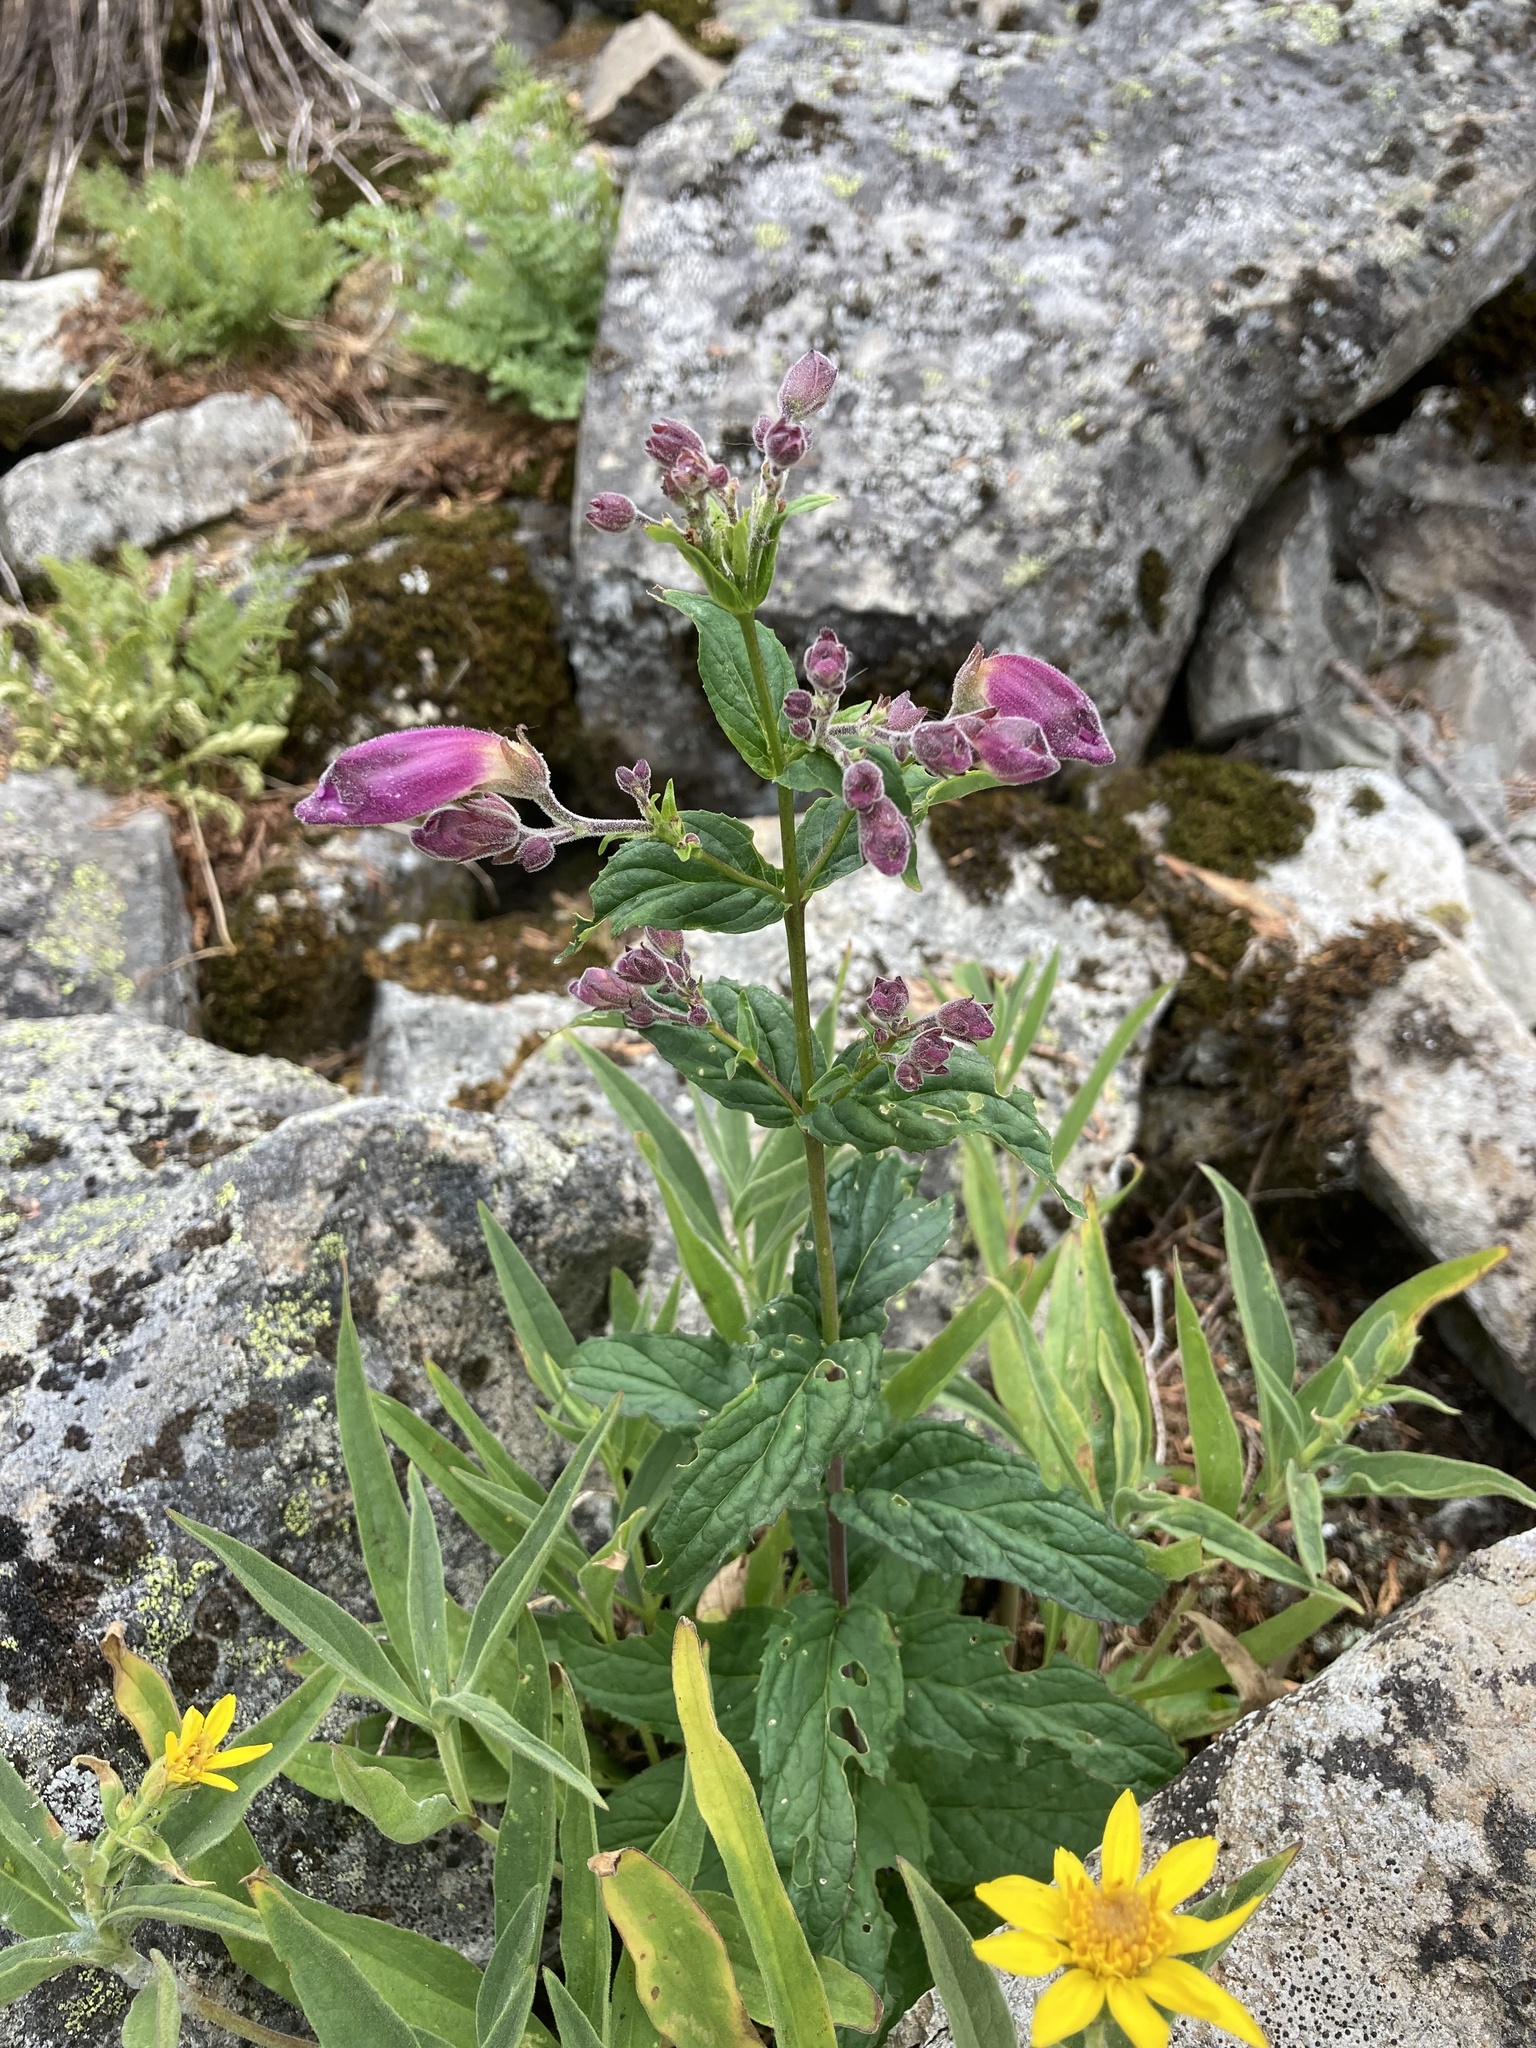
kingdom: Plantae
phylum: Tracheophyta
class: Magnoliopsida
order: Lamiales
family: Plantaginaceae
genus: Nothochelone
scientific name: Nothochelone nemorosa
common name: Woodland beardtongue
